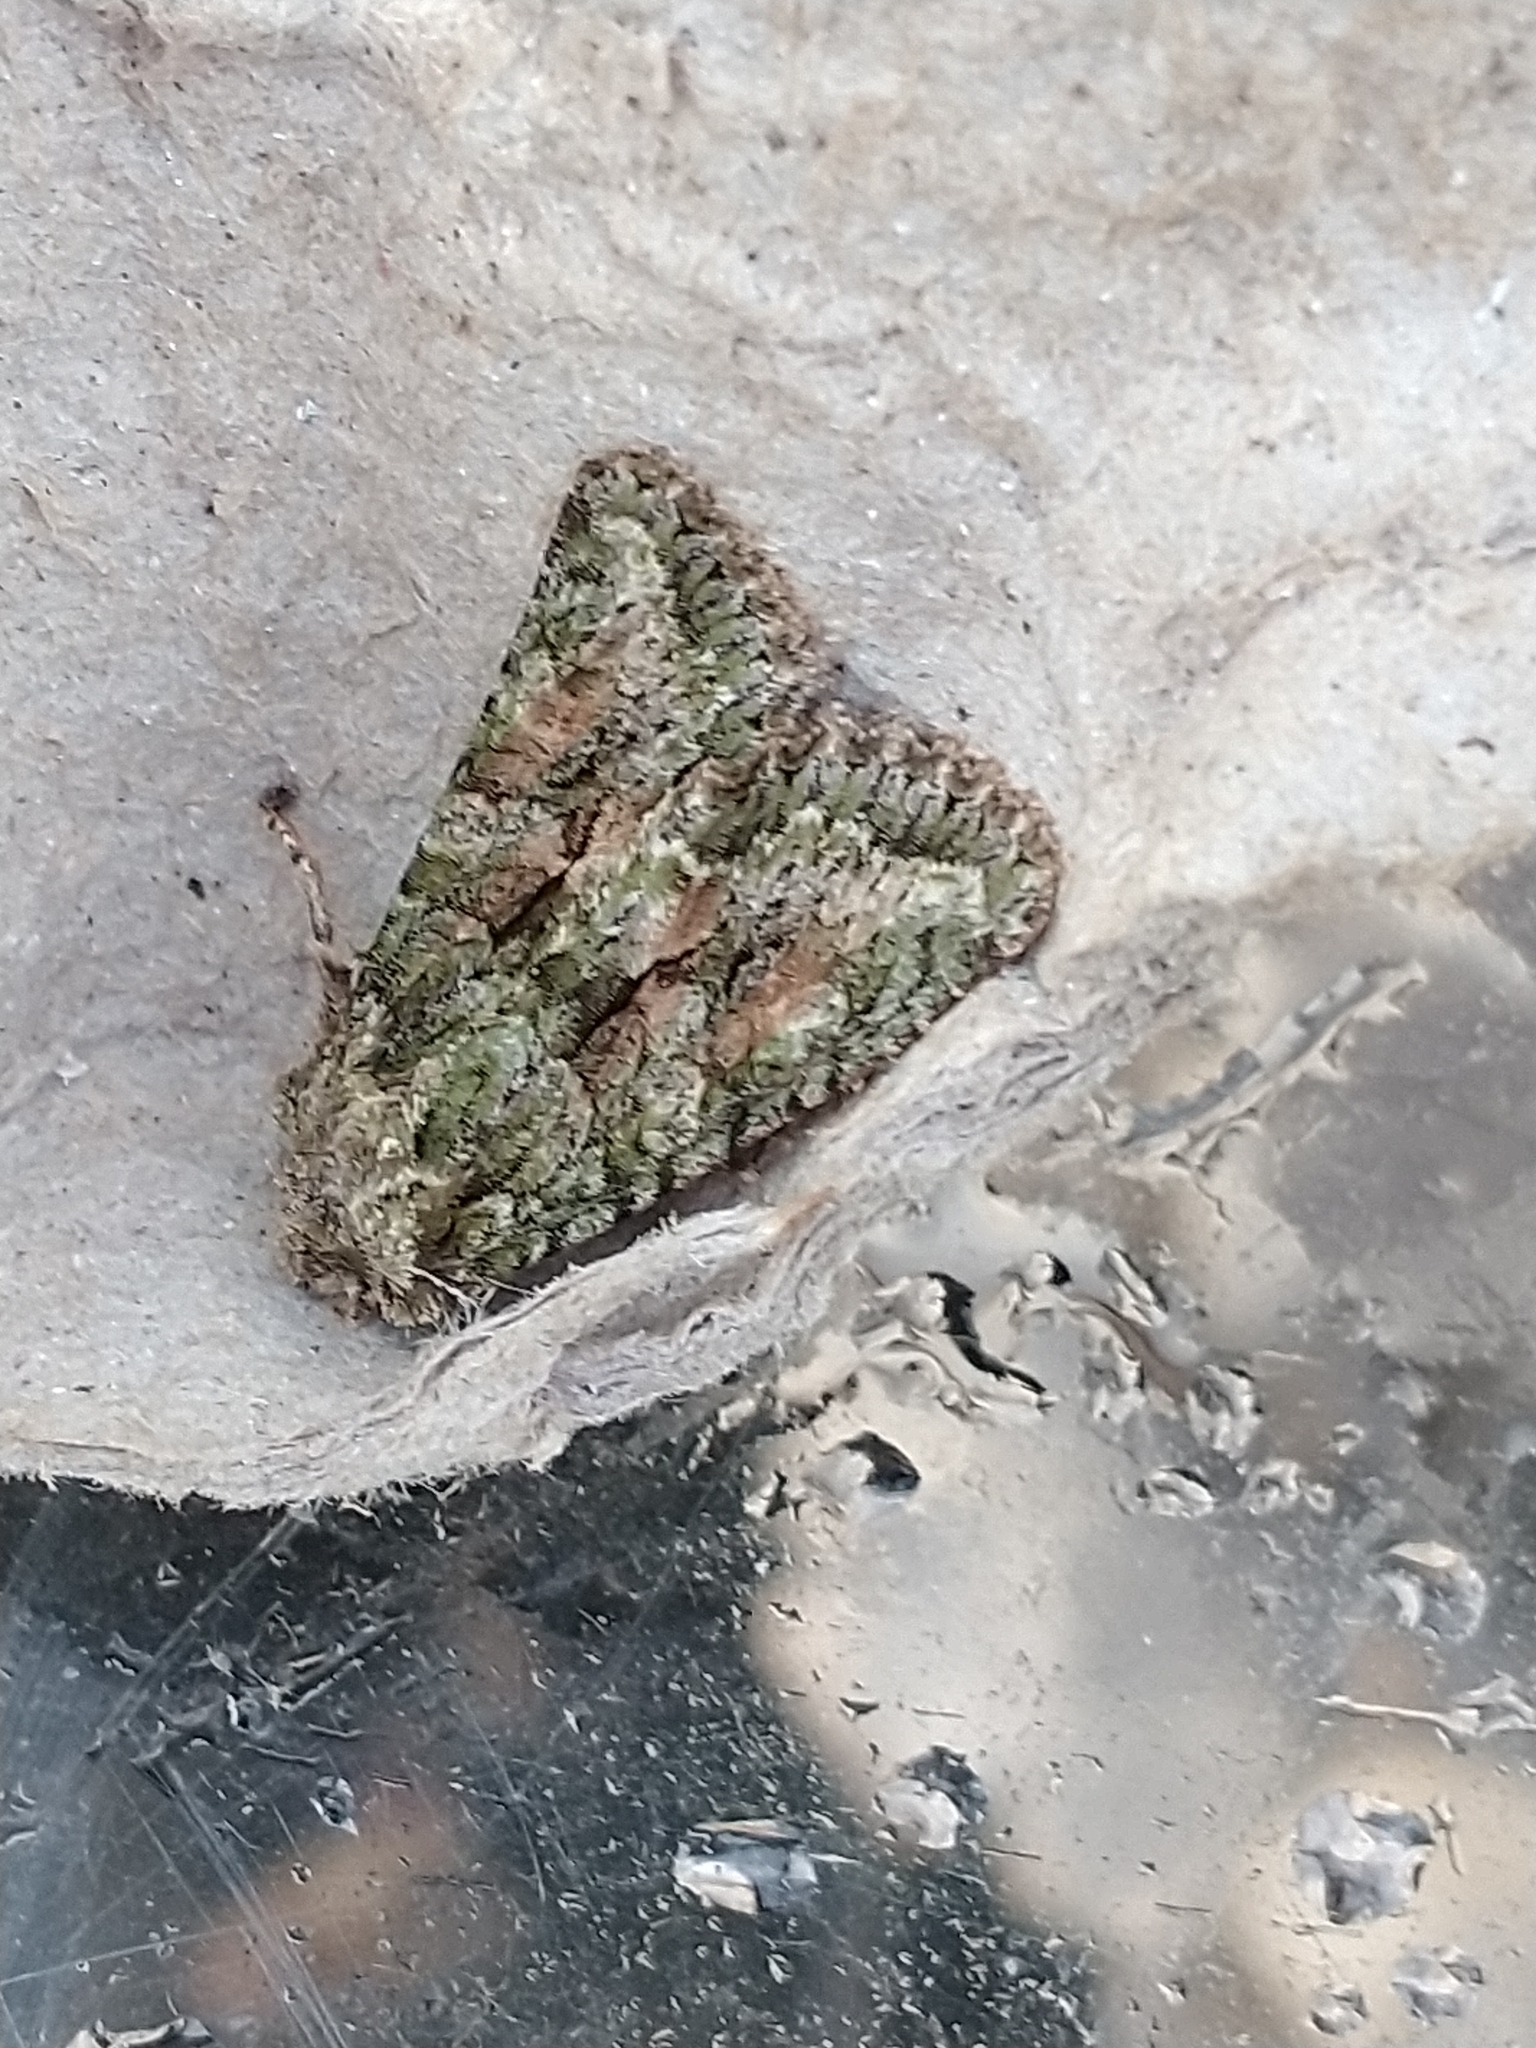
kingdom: Animalia
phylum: Arthropoda
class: Insecta
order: Lepidoptera
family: Noctuidae
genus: Dryobotodes
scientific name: Dryobotodes eremita
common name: Brindled green
